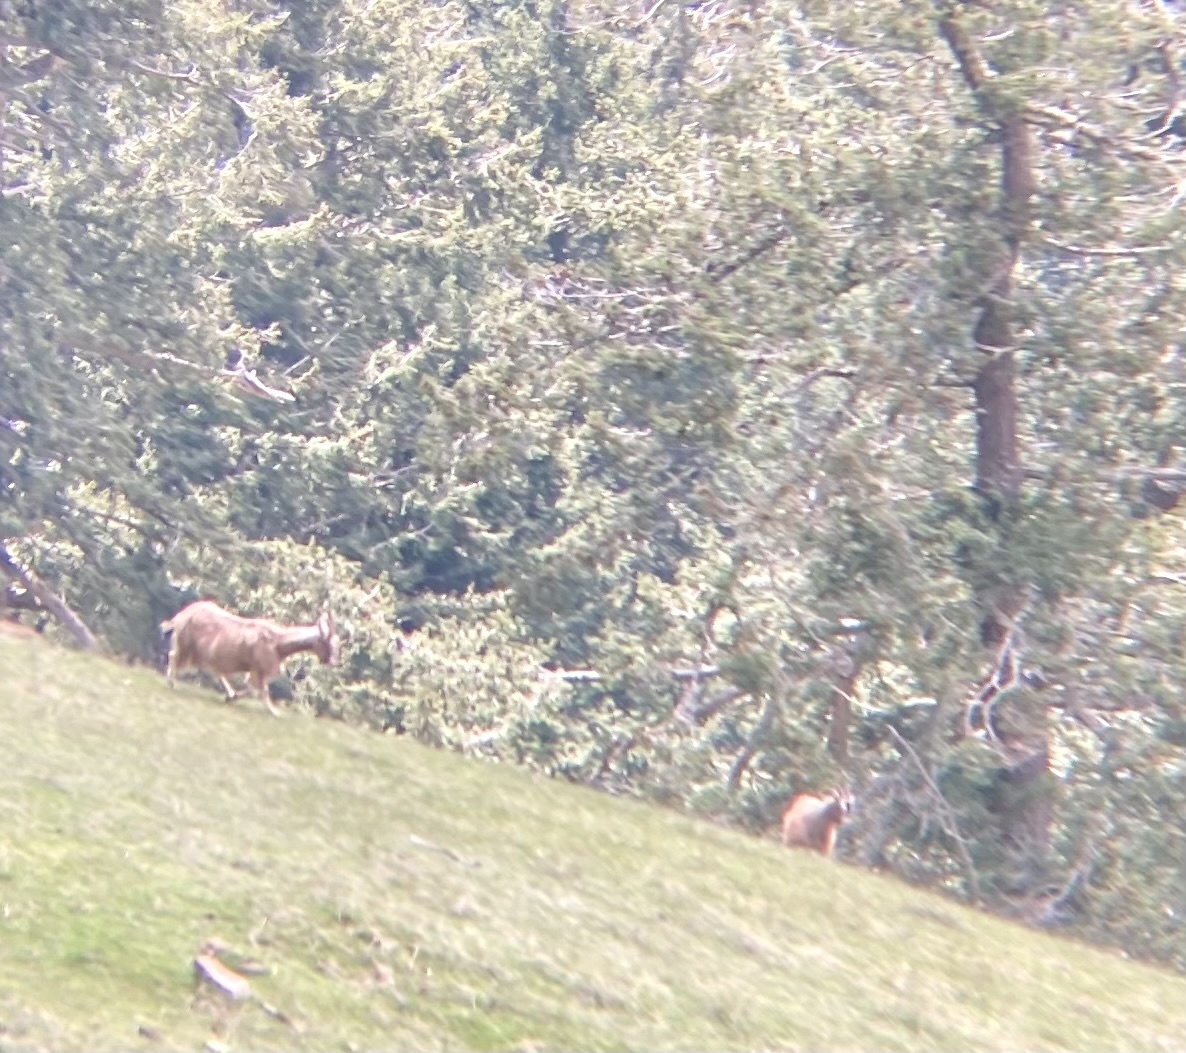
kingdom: Animalia
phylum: Chordata
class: Mammalia
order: Artiodactyla
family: Bovidae
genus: Capra
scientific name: Capra hircus
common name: Domestic goat
